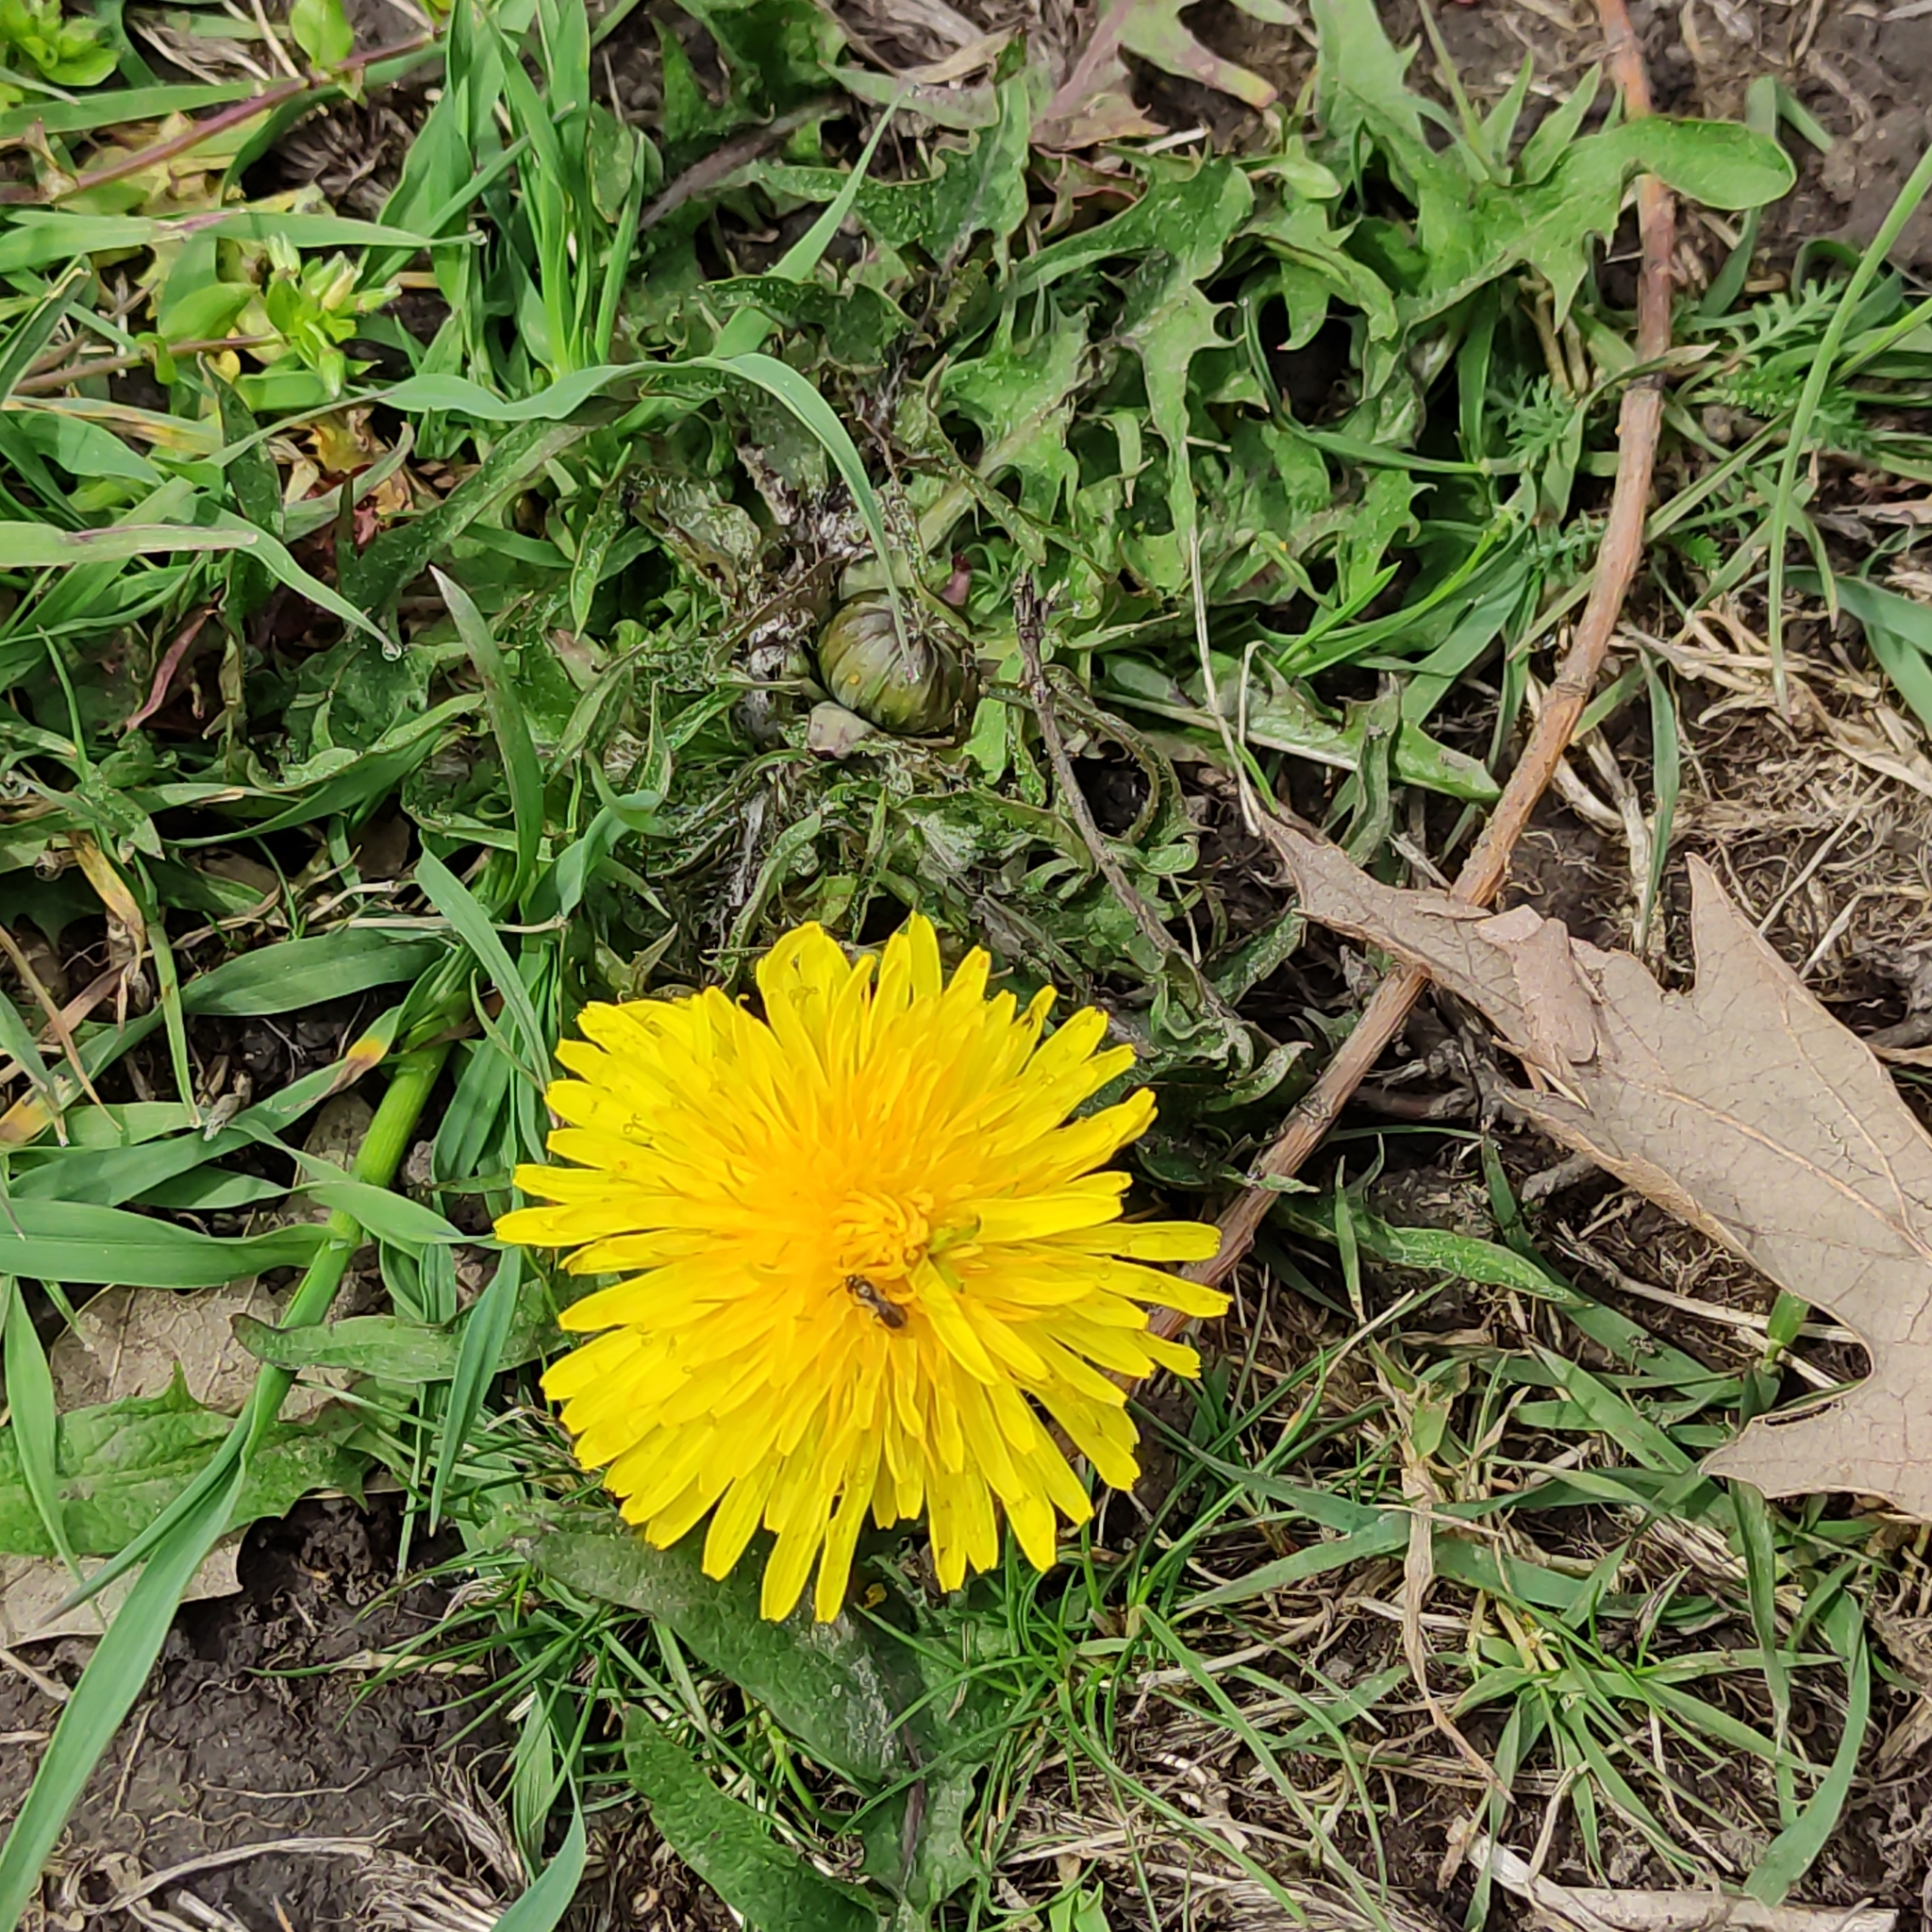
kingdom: Plantae
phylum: Tracheophyta
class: Magnoliopsida
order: Asterales
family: Asteraceae
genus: Taraxacum
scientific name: Taraxacum officinale
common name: Common dandelion
